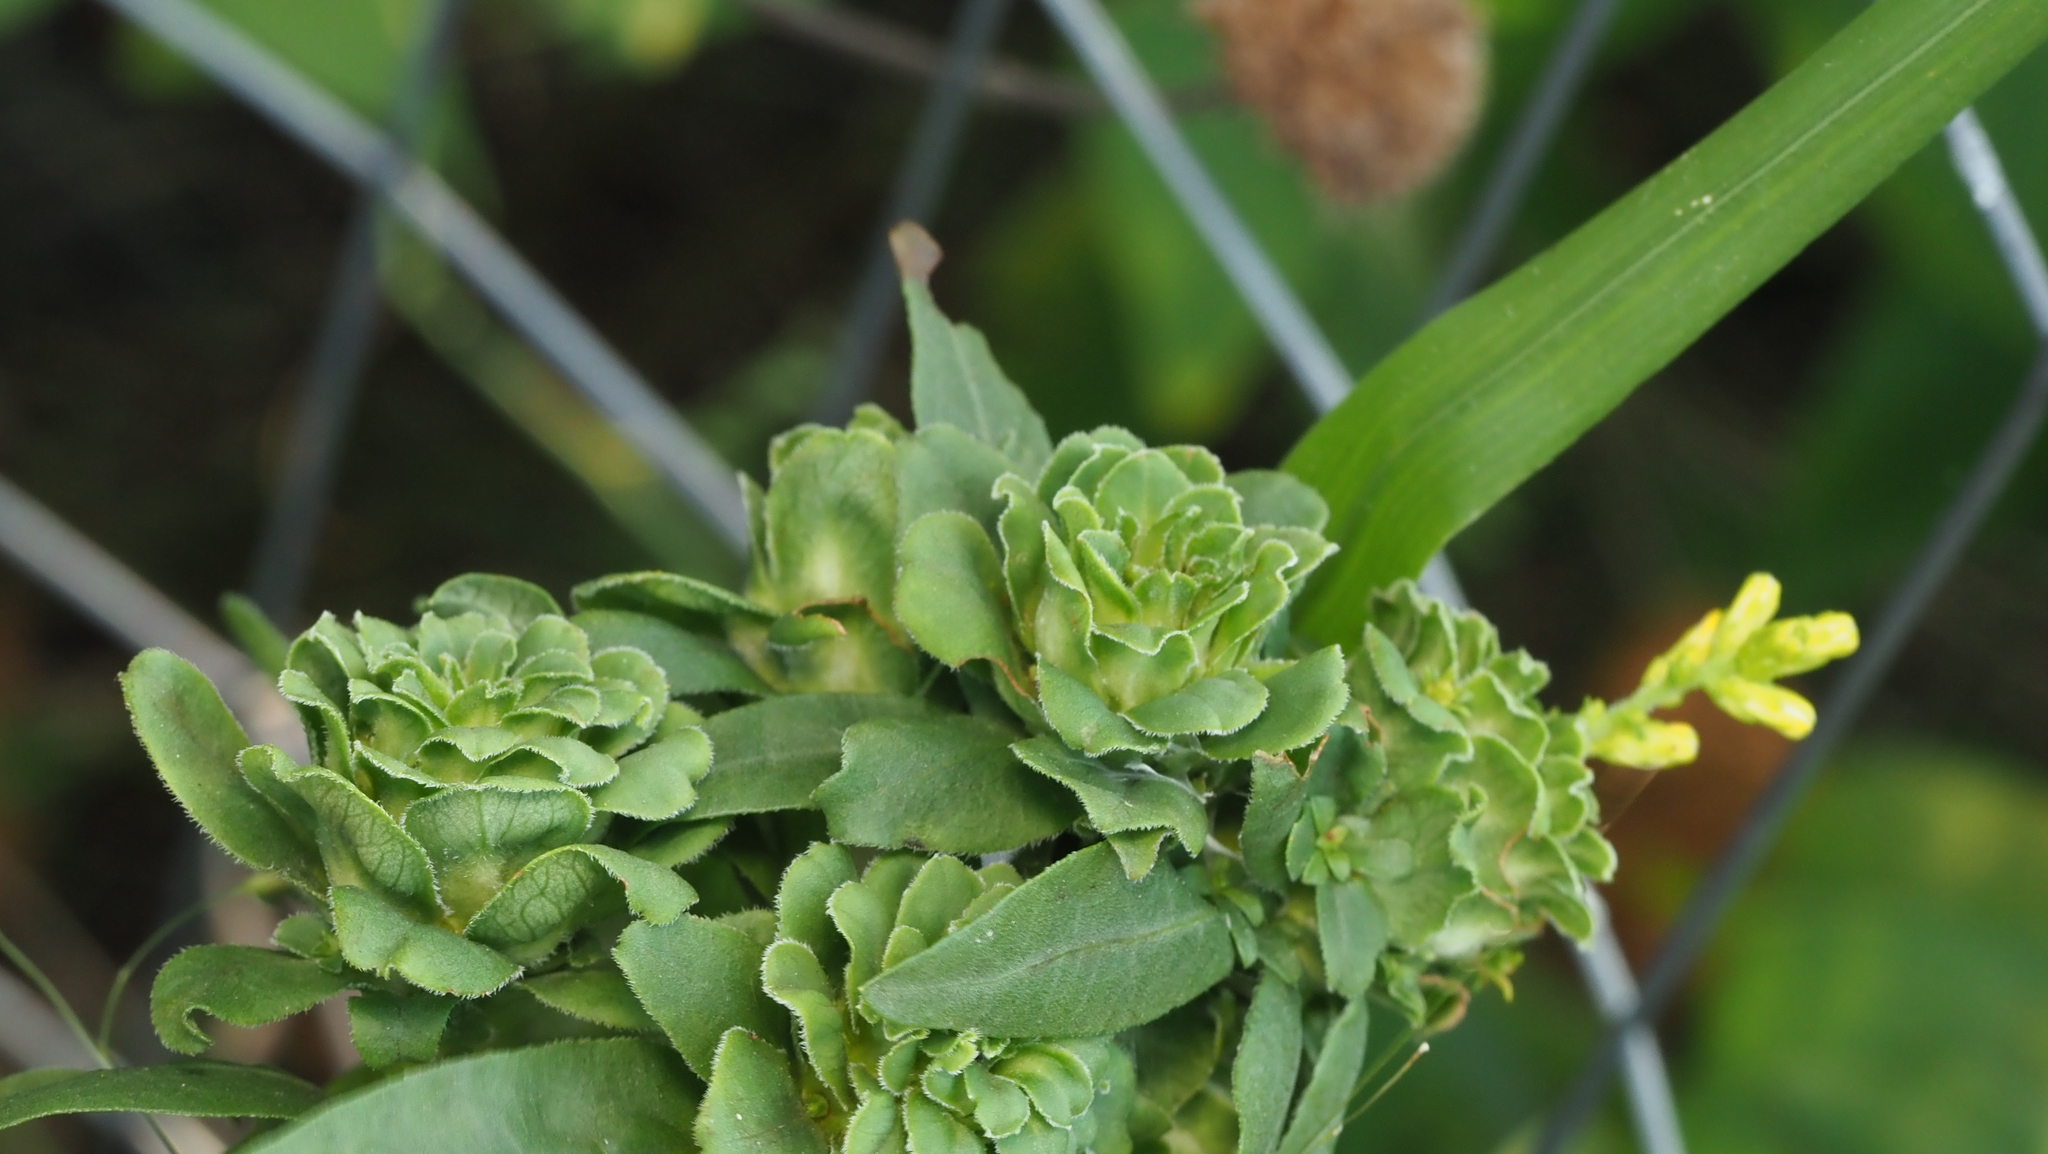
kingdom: Animalia
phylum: Arthropoda
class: Insecta
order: Diptera
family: Tephritidae
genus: Procecidochares
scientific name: Procecidochares atra
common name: Goldenrod brussels sprout gall fly
